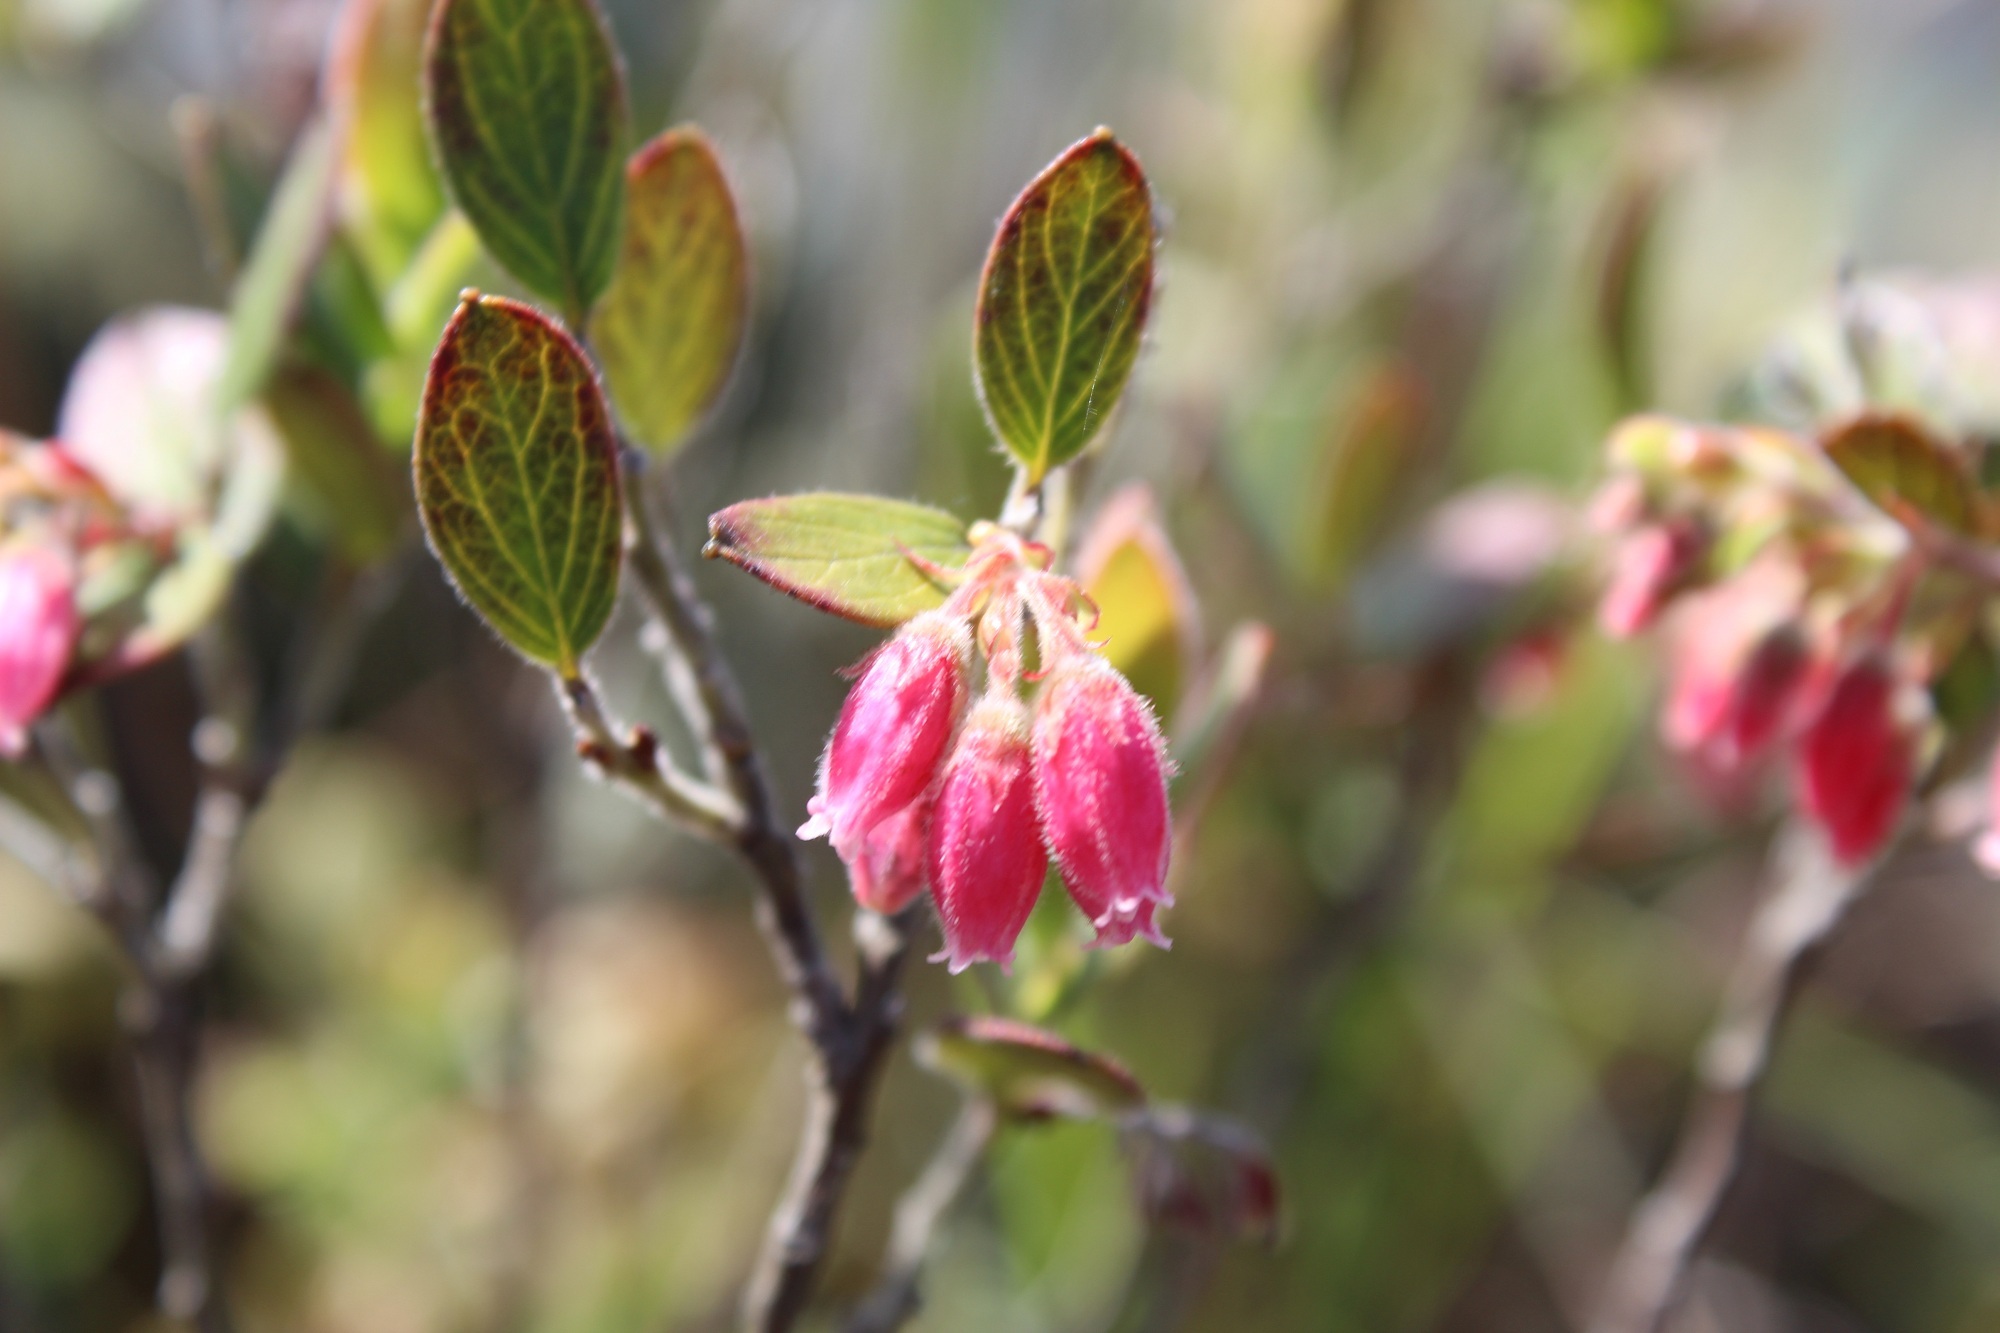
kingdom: Plantae
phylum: Tracheophyta
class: Magnoliopsida
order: Ericales
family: Ericaceae
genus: Gaylussacia
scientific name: Gaylussacia buxifolia
